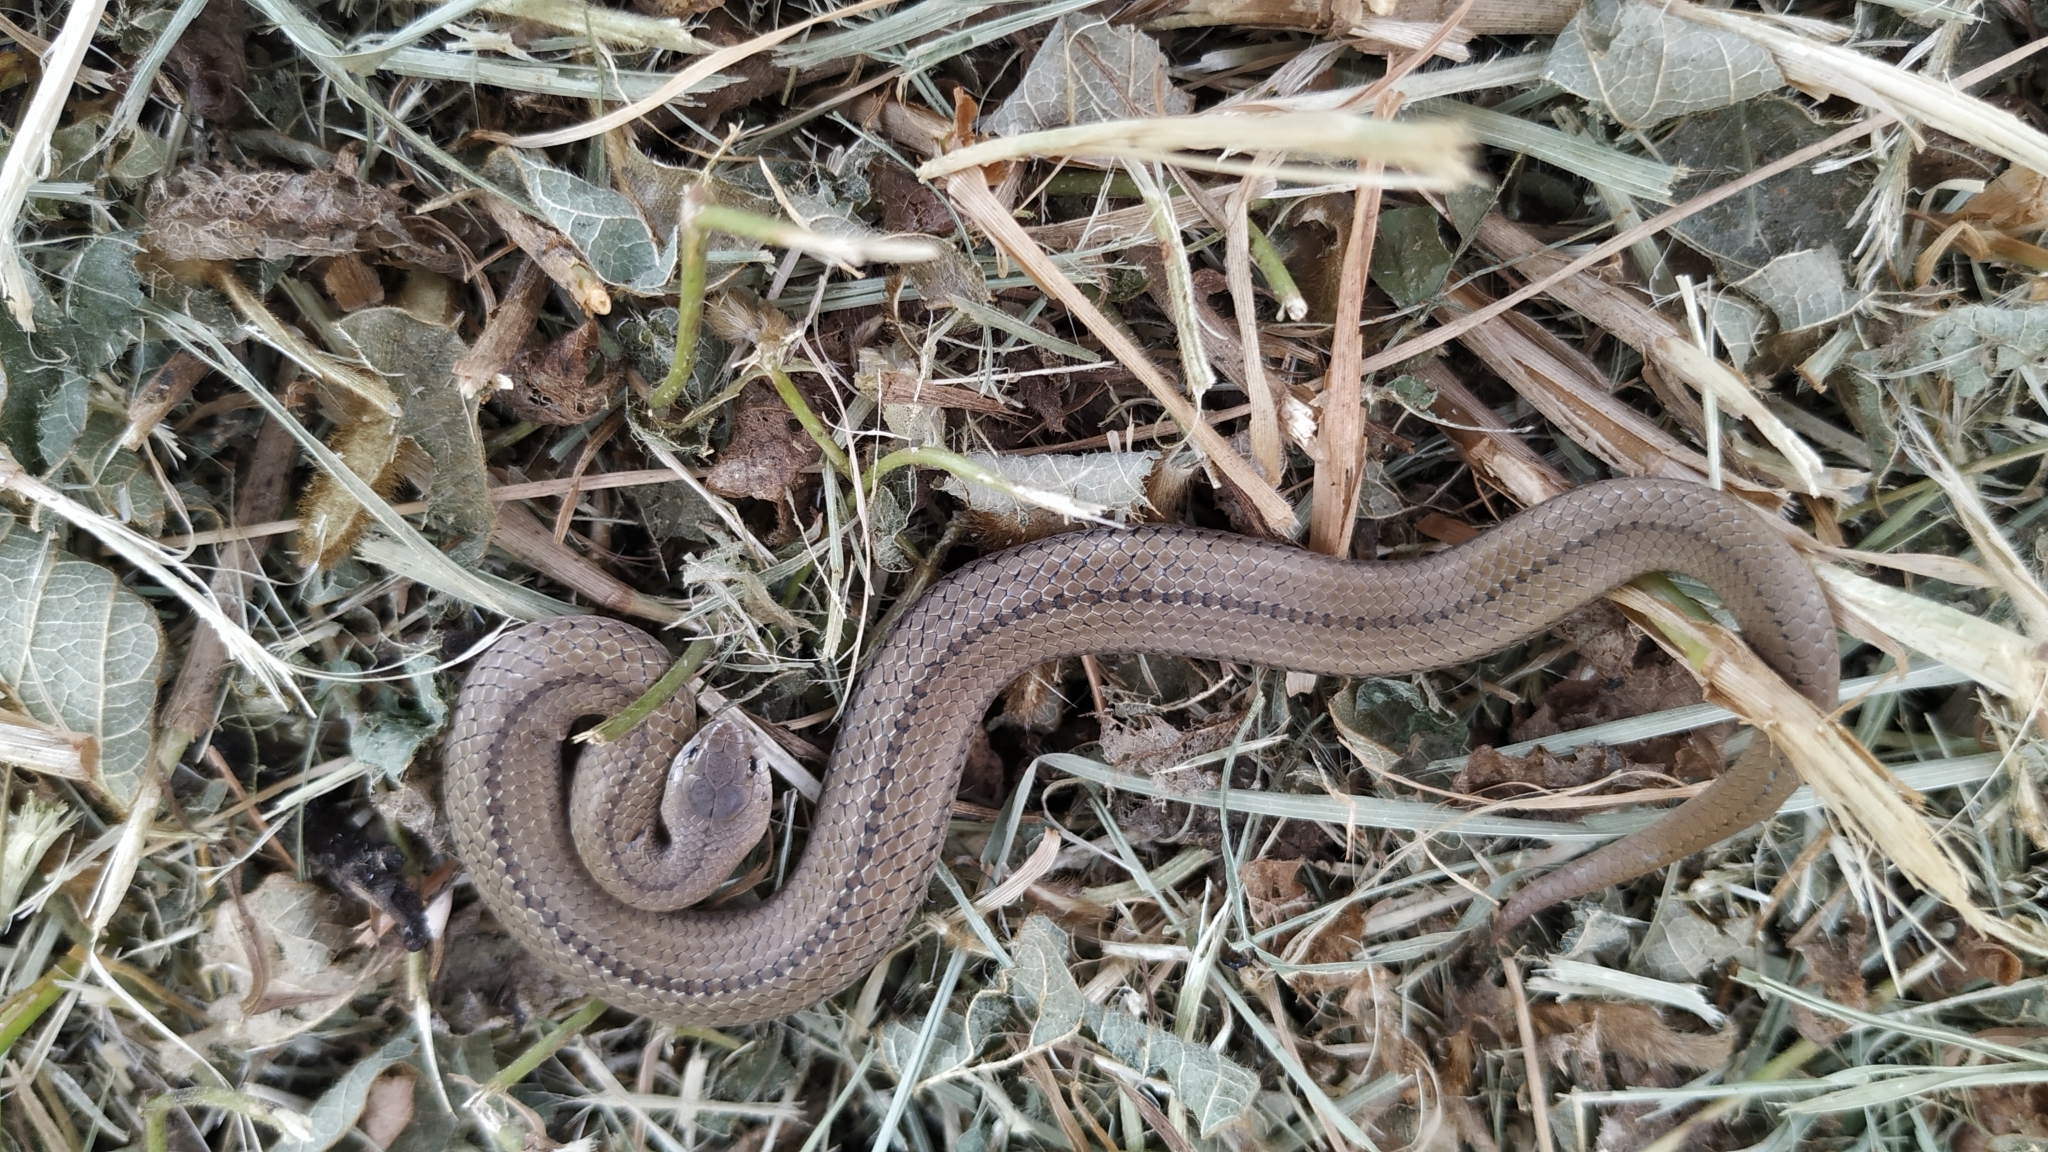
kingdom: Animalia
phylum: Chordata
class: Squamata
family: Colubridae
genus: Conopsis
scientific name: Conopsis lineata
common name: Lined tolucan earthsnake
